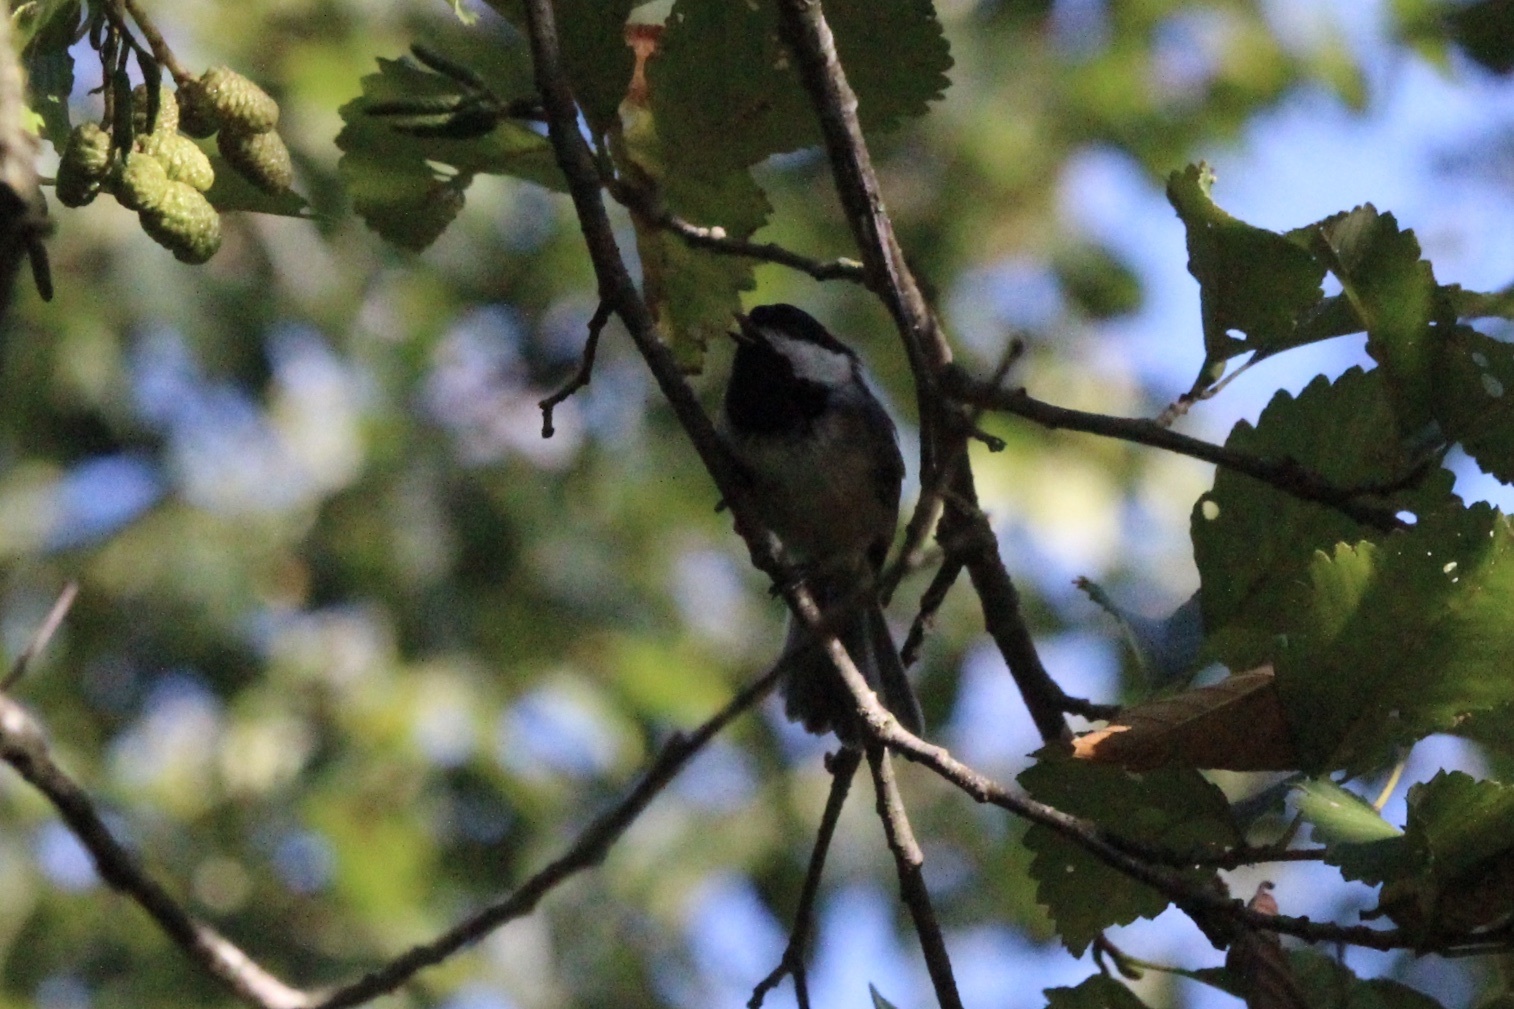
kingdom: Animalia
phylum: Chordata
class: Aves
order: Passeriformes
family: Paridae
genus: Poecile
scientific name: Poecile atricapillus
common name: Black-capped chickadee
